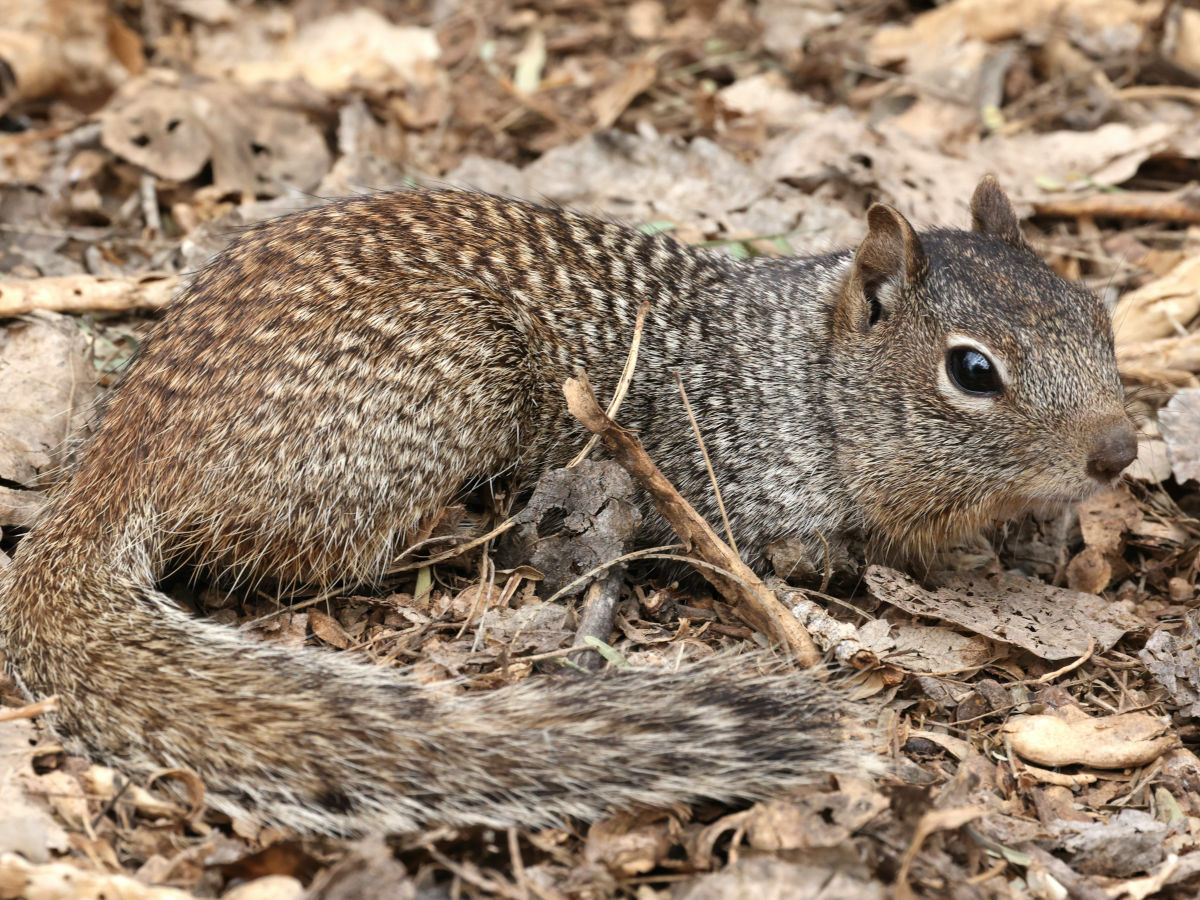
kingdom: Animalia
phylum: Chordata
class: Mammalia
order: Rodentia
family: Sciuridae
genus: Otospermophilus
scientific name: Otospermophilus variegatus
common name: Rock squirrel
